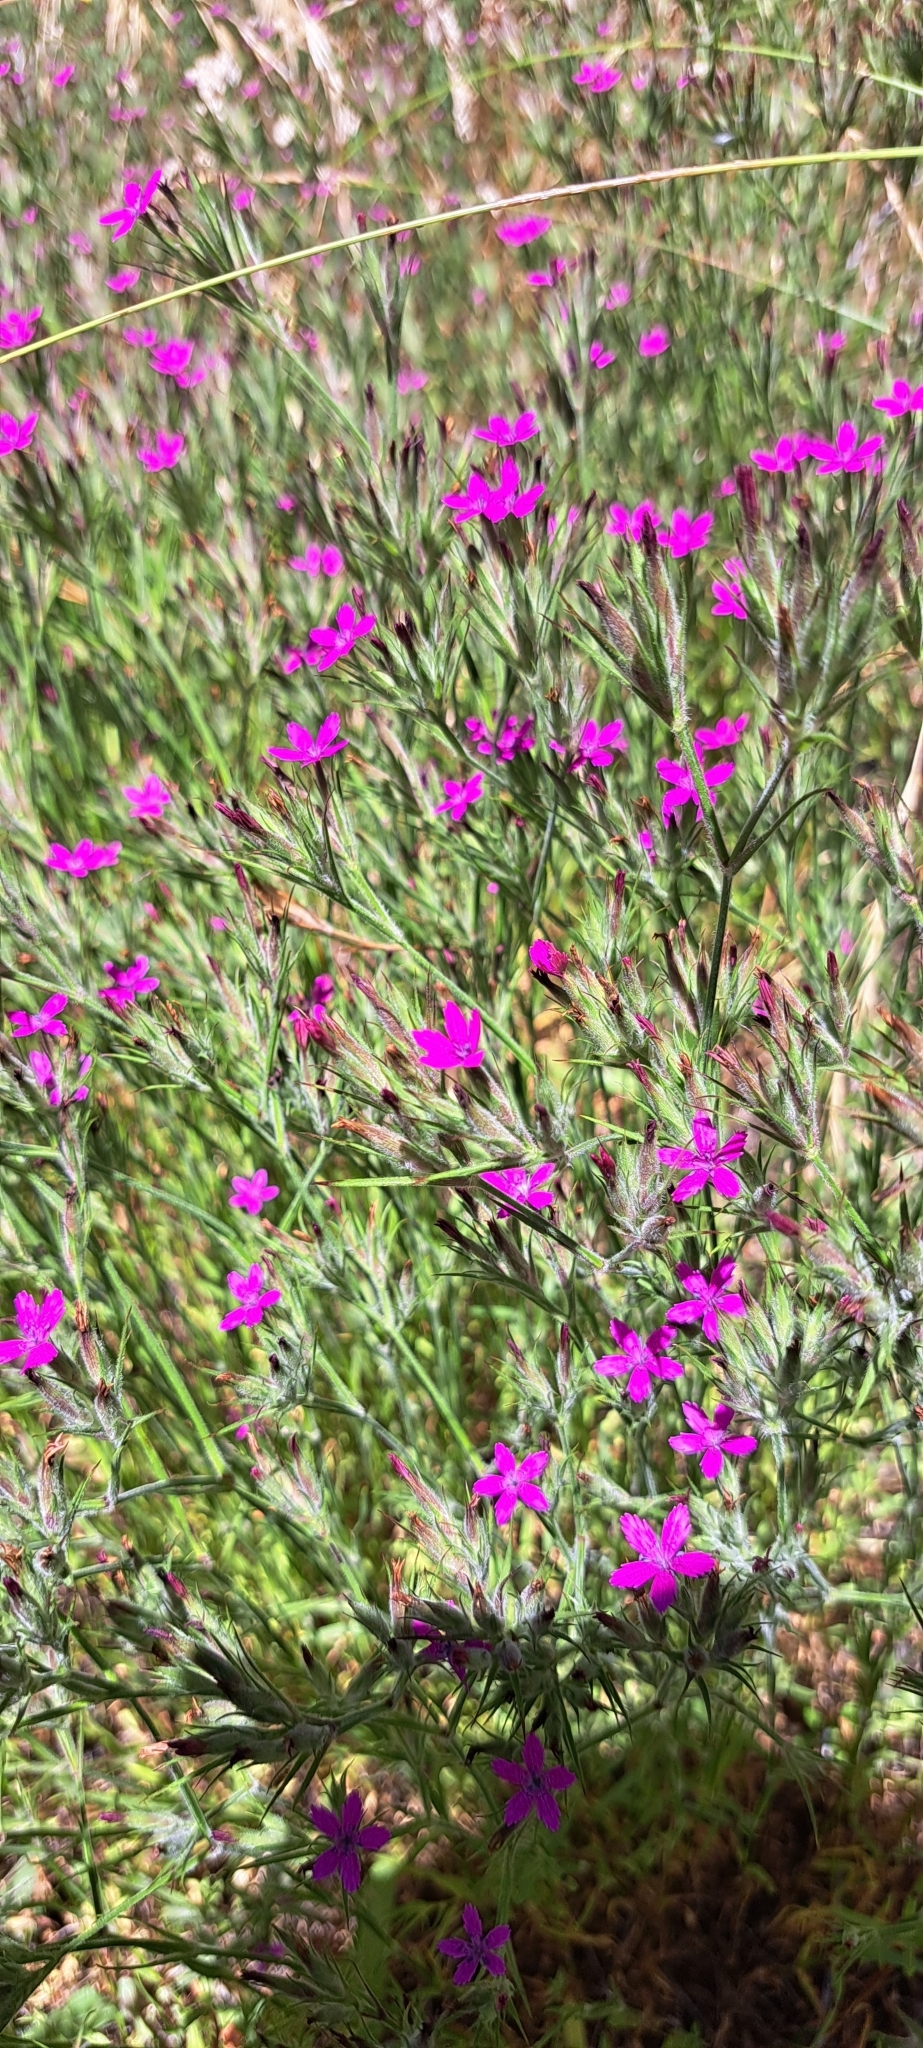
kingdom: Plantae
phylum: Tracheophyta
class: Magnoliopsida
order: Caryophyllales
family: Caryophyllaceae
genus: Dianthus
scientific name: Dianthus armeria
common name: Deptford pink
